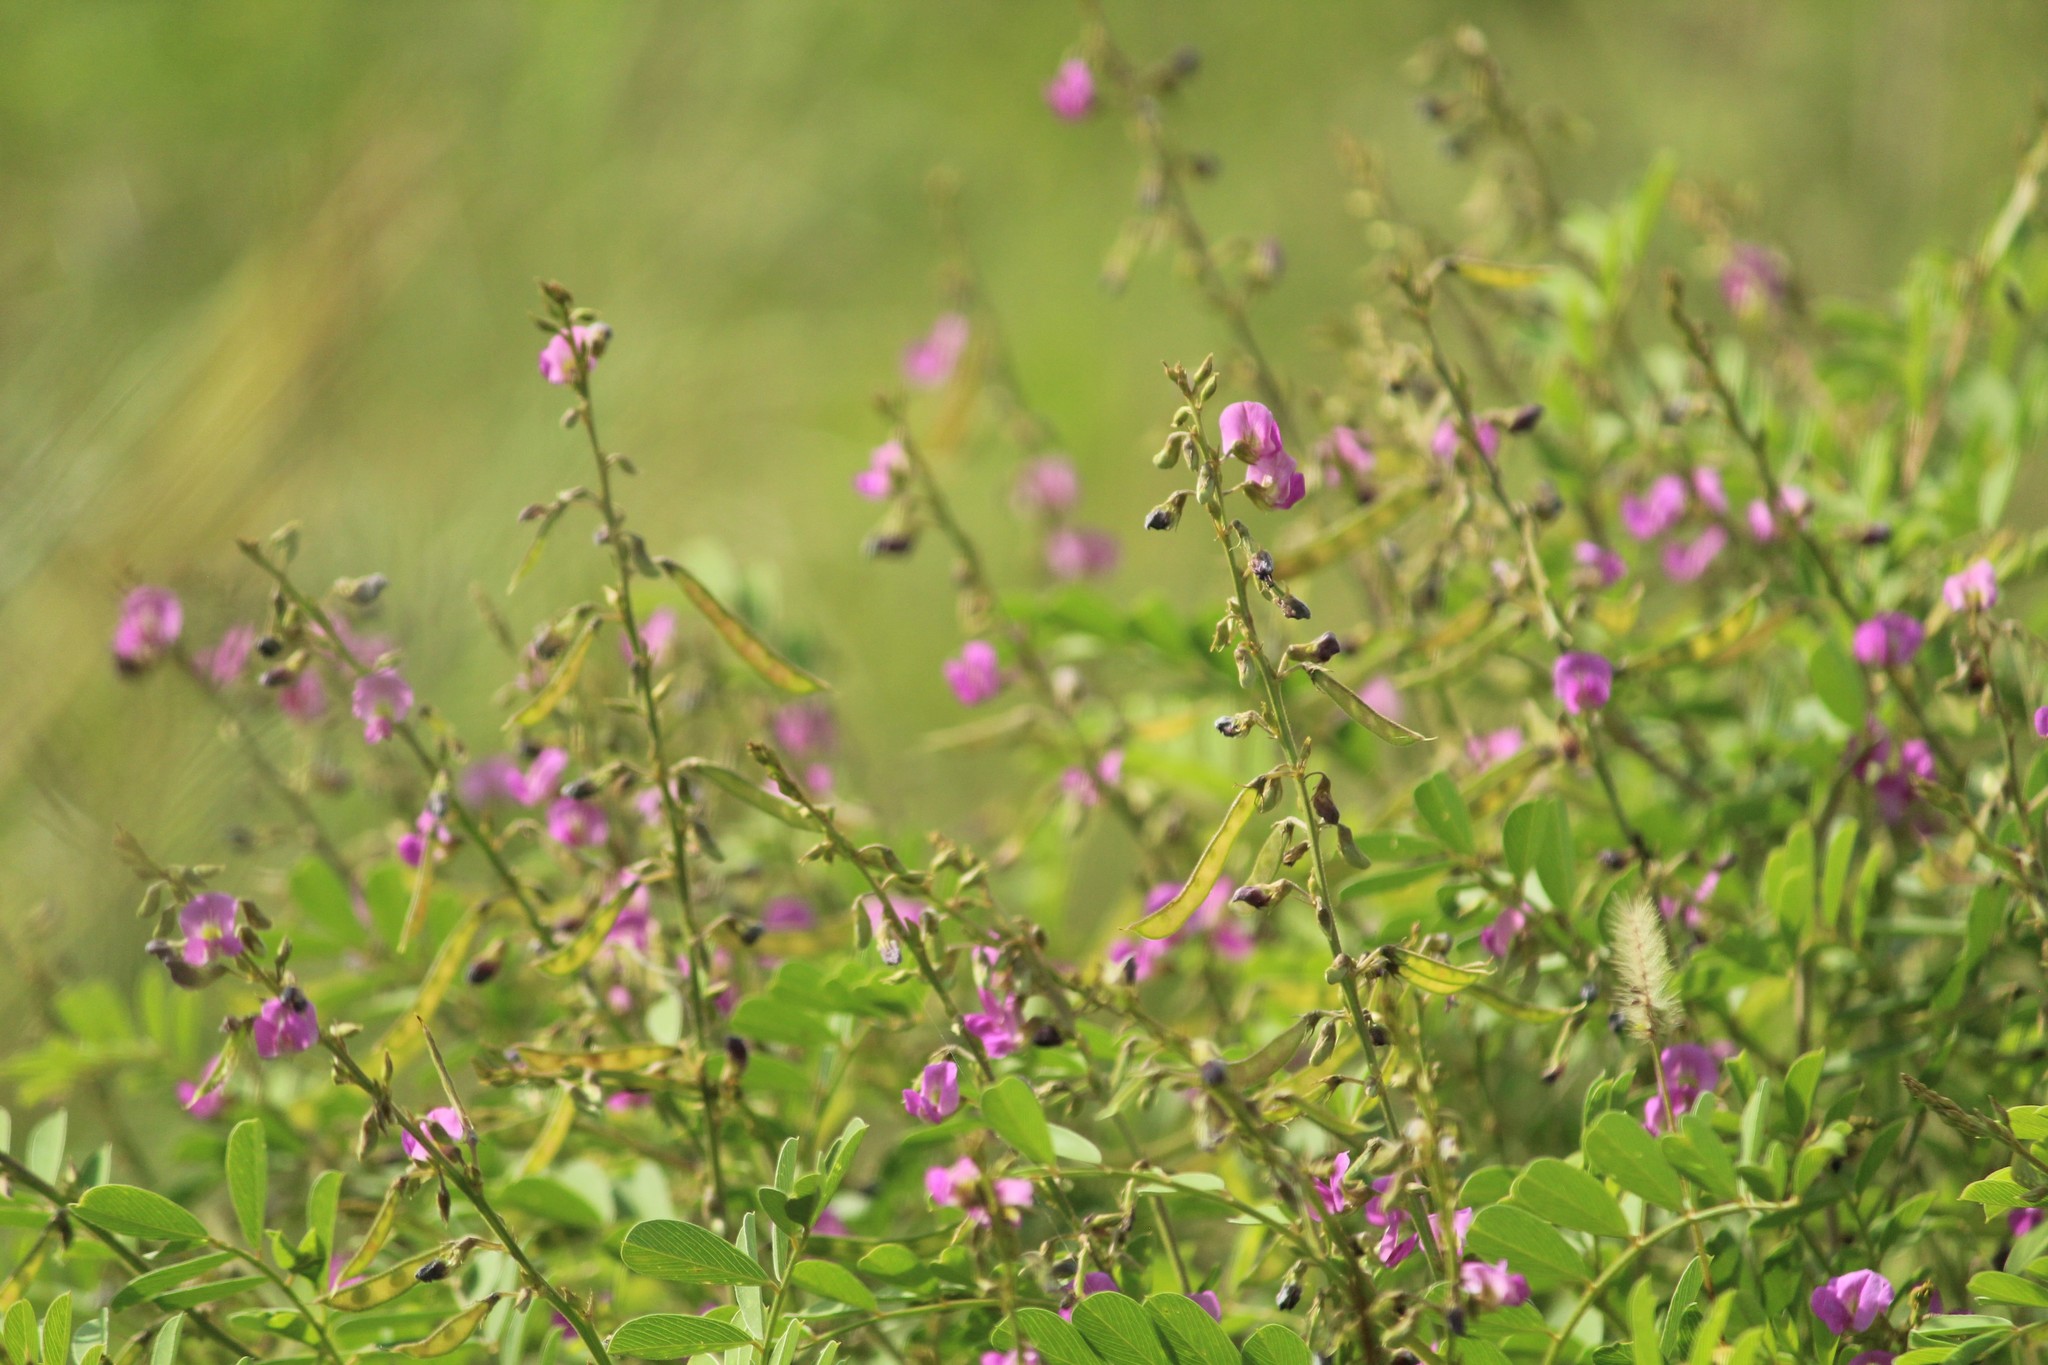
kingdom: Plantae
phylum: Tracheophyta
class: Magnoliopsida
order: Fabales
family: Fabaceae
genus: Tephrosia
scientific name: Tephrosia purpurea
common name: Fishpoison
